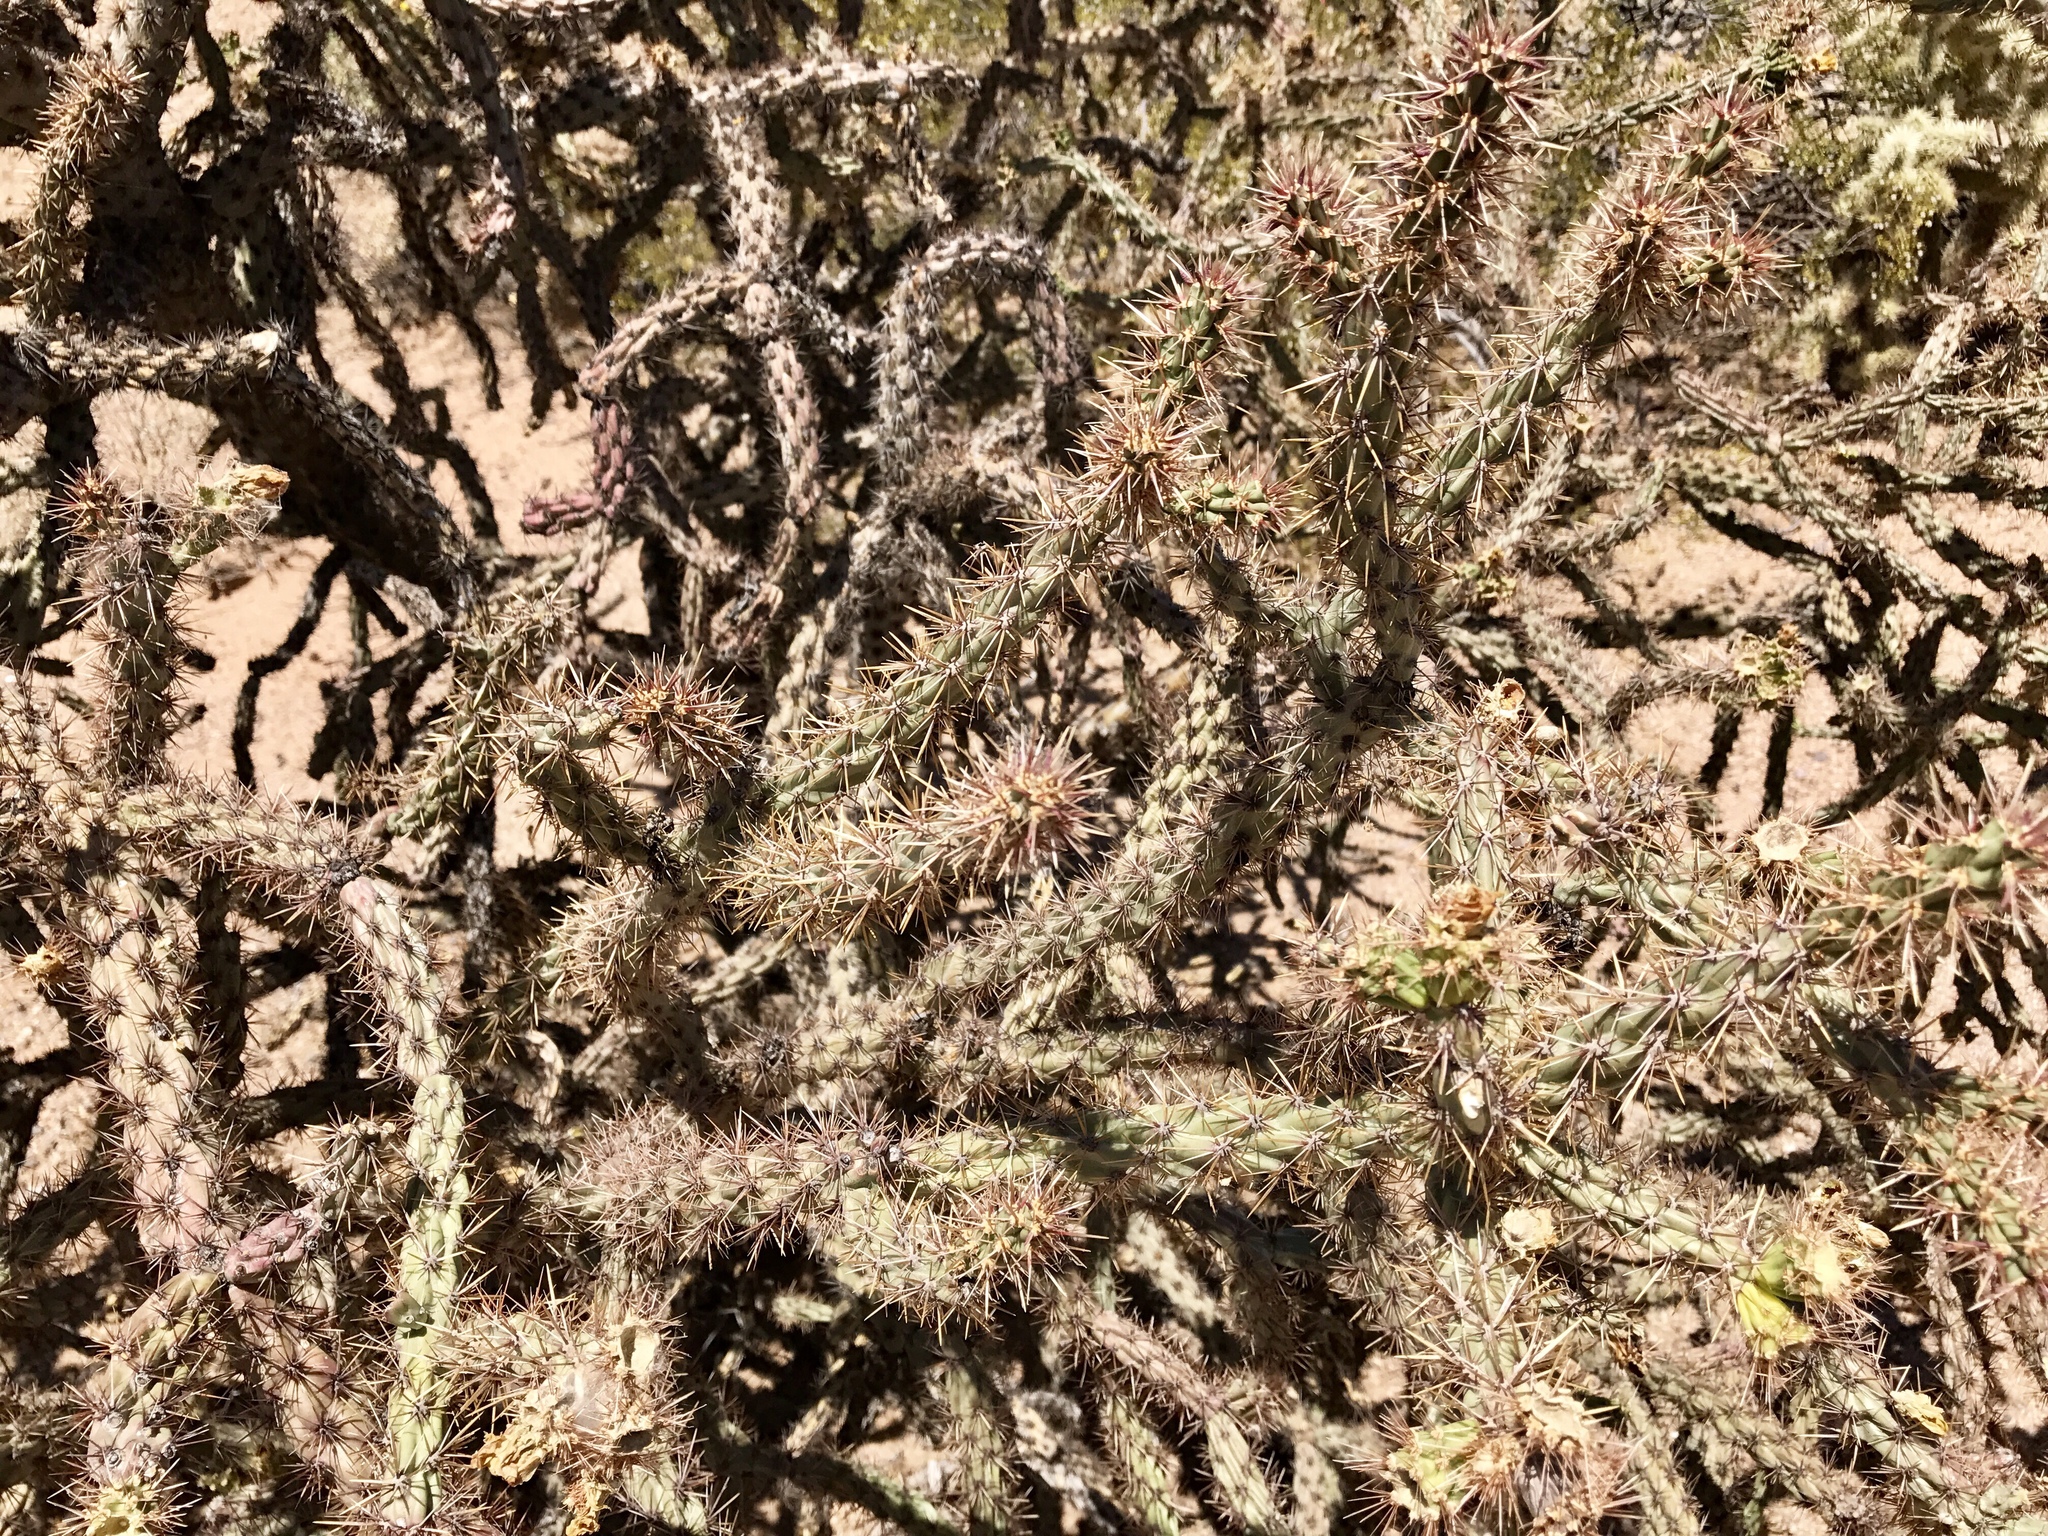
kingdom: Plantae
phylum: Tracheophyta
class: Magnoliopsida
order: Caryophyllales
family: Cactaceae
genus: Cylindropuntia
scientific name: Cylindropuntia acanthocarpa
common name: Buckhorn cholla
